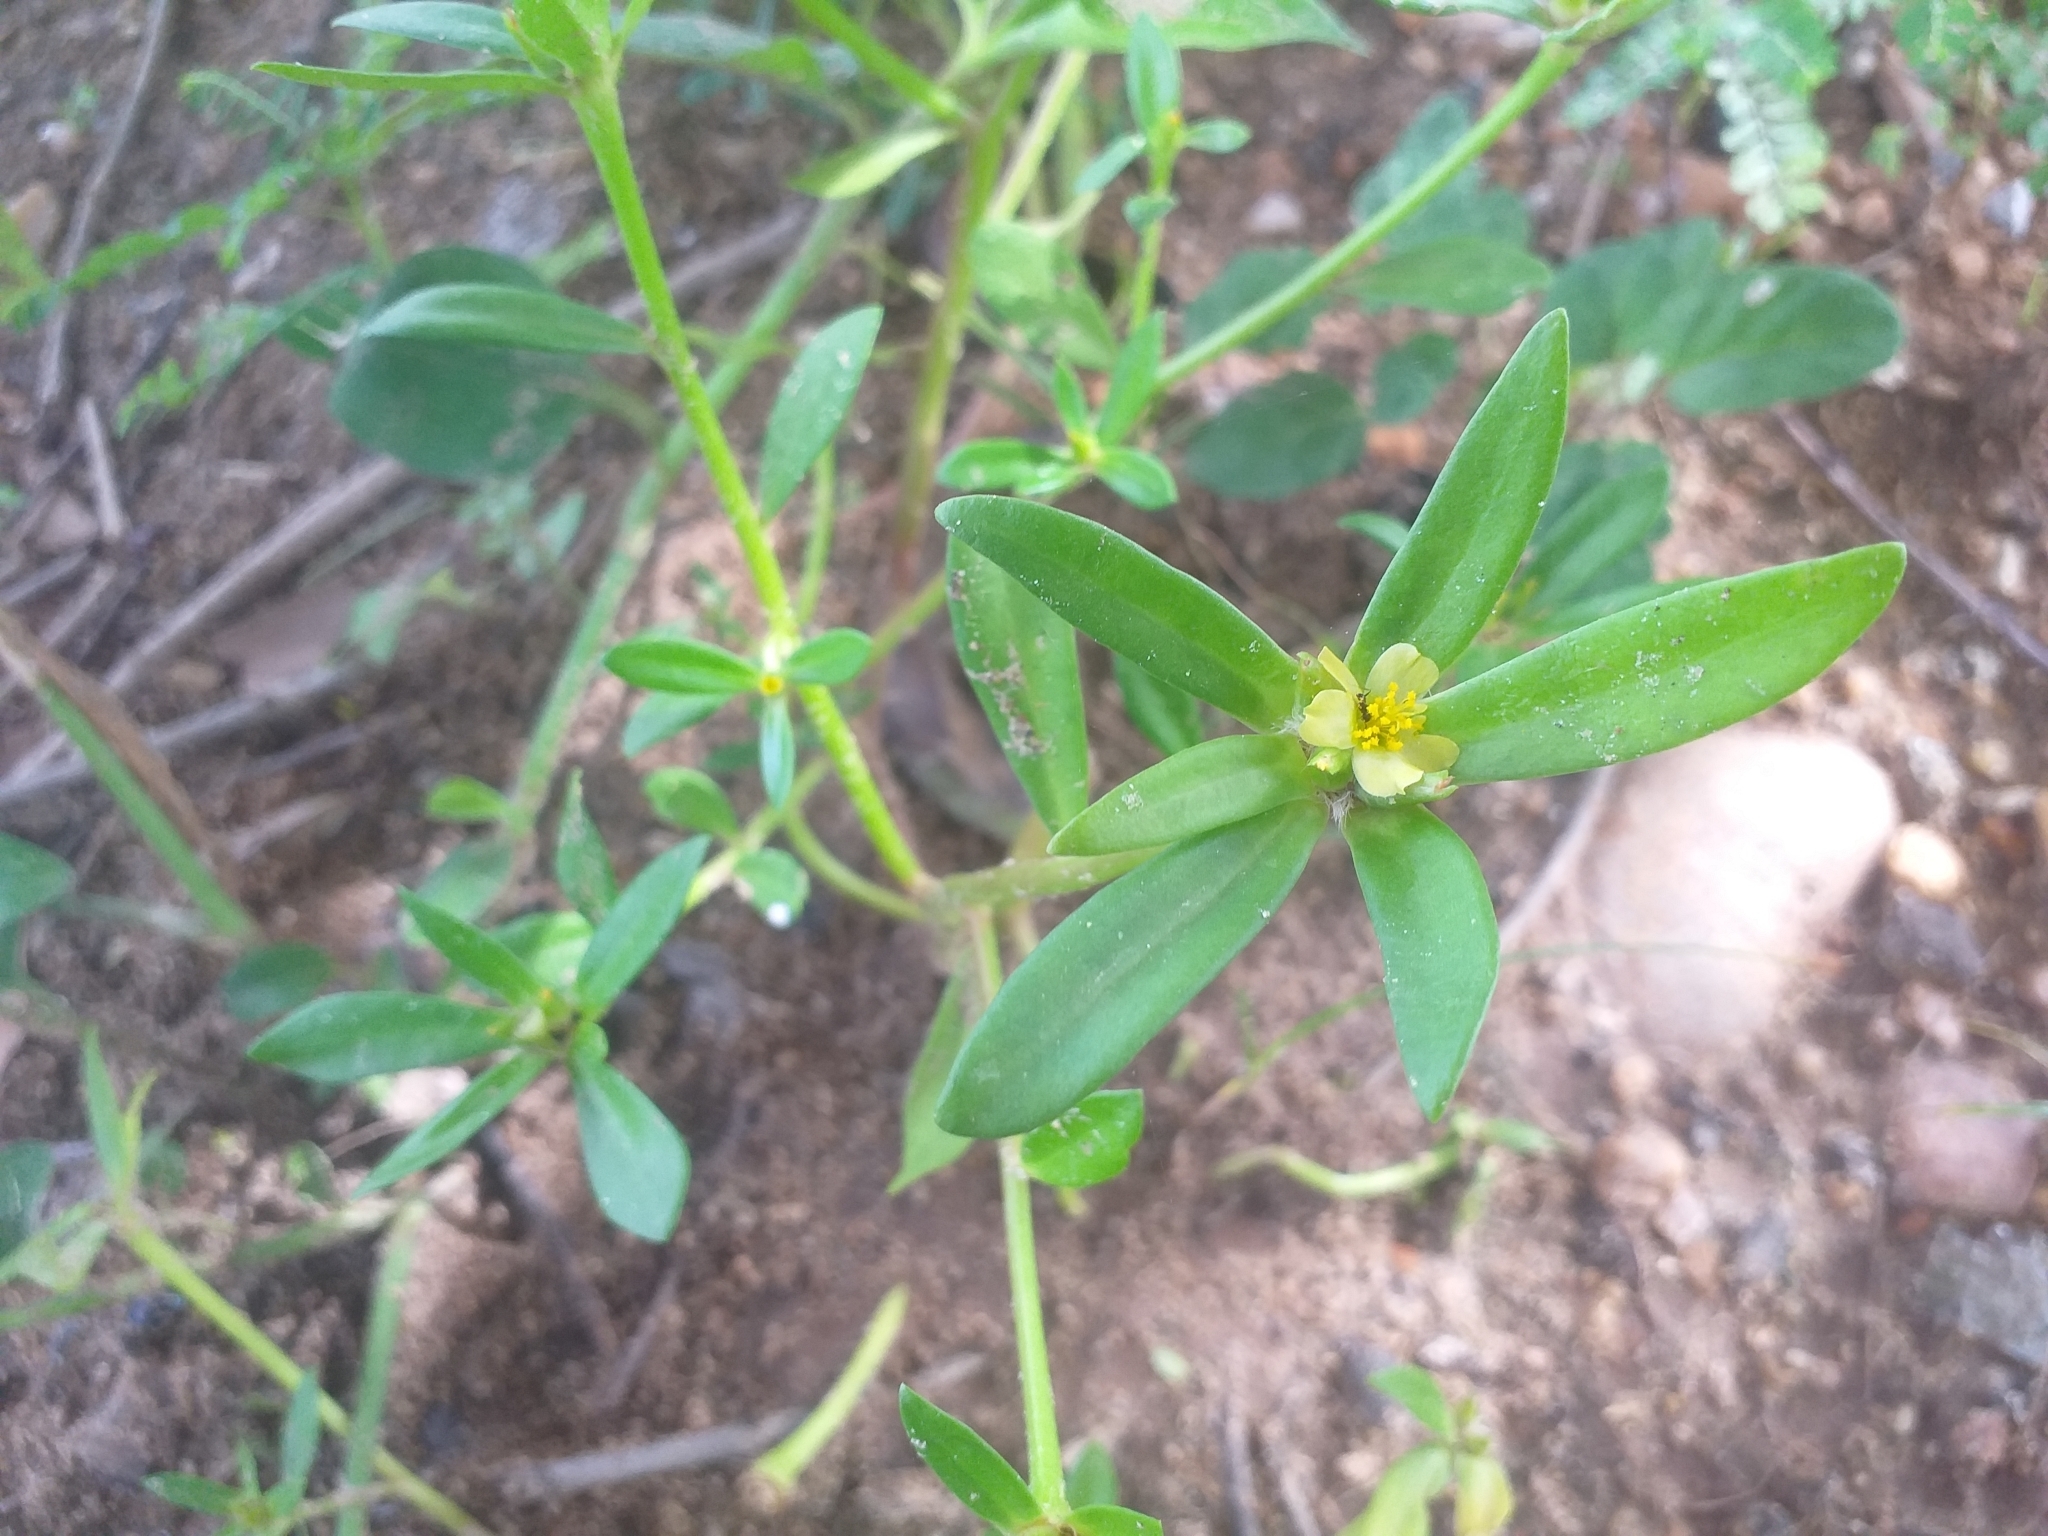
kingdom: Plantae
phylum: Tracheophyta
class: Magnoliopsida
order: Caryophyllales
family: Portulacaceae
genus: Portulaca
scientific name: Portulaca mucronata
